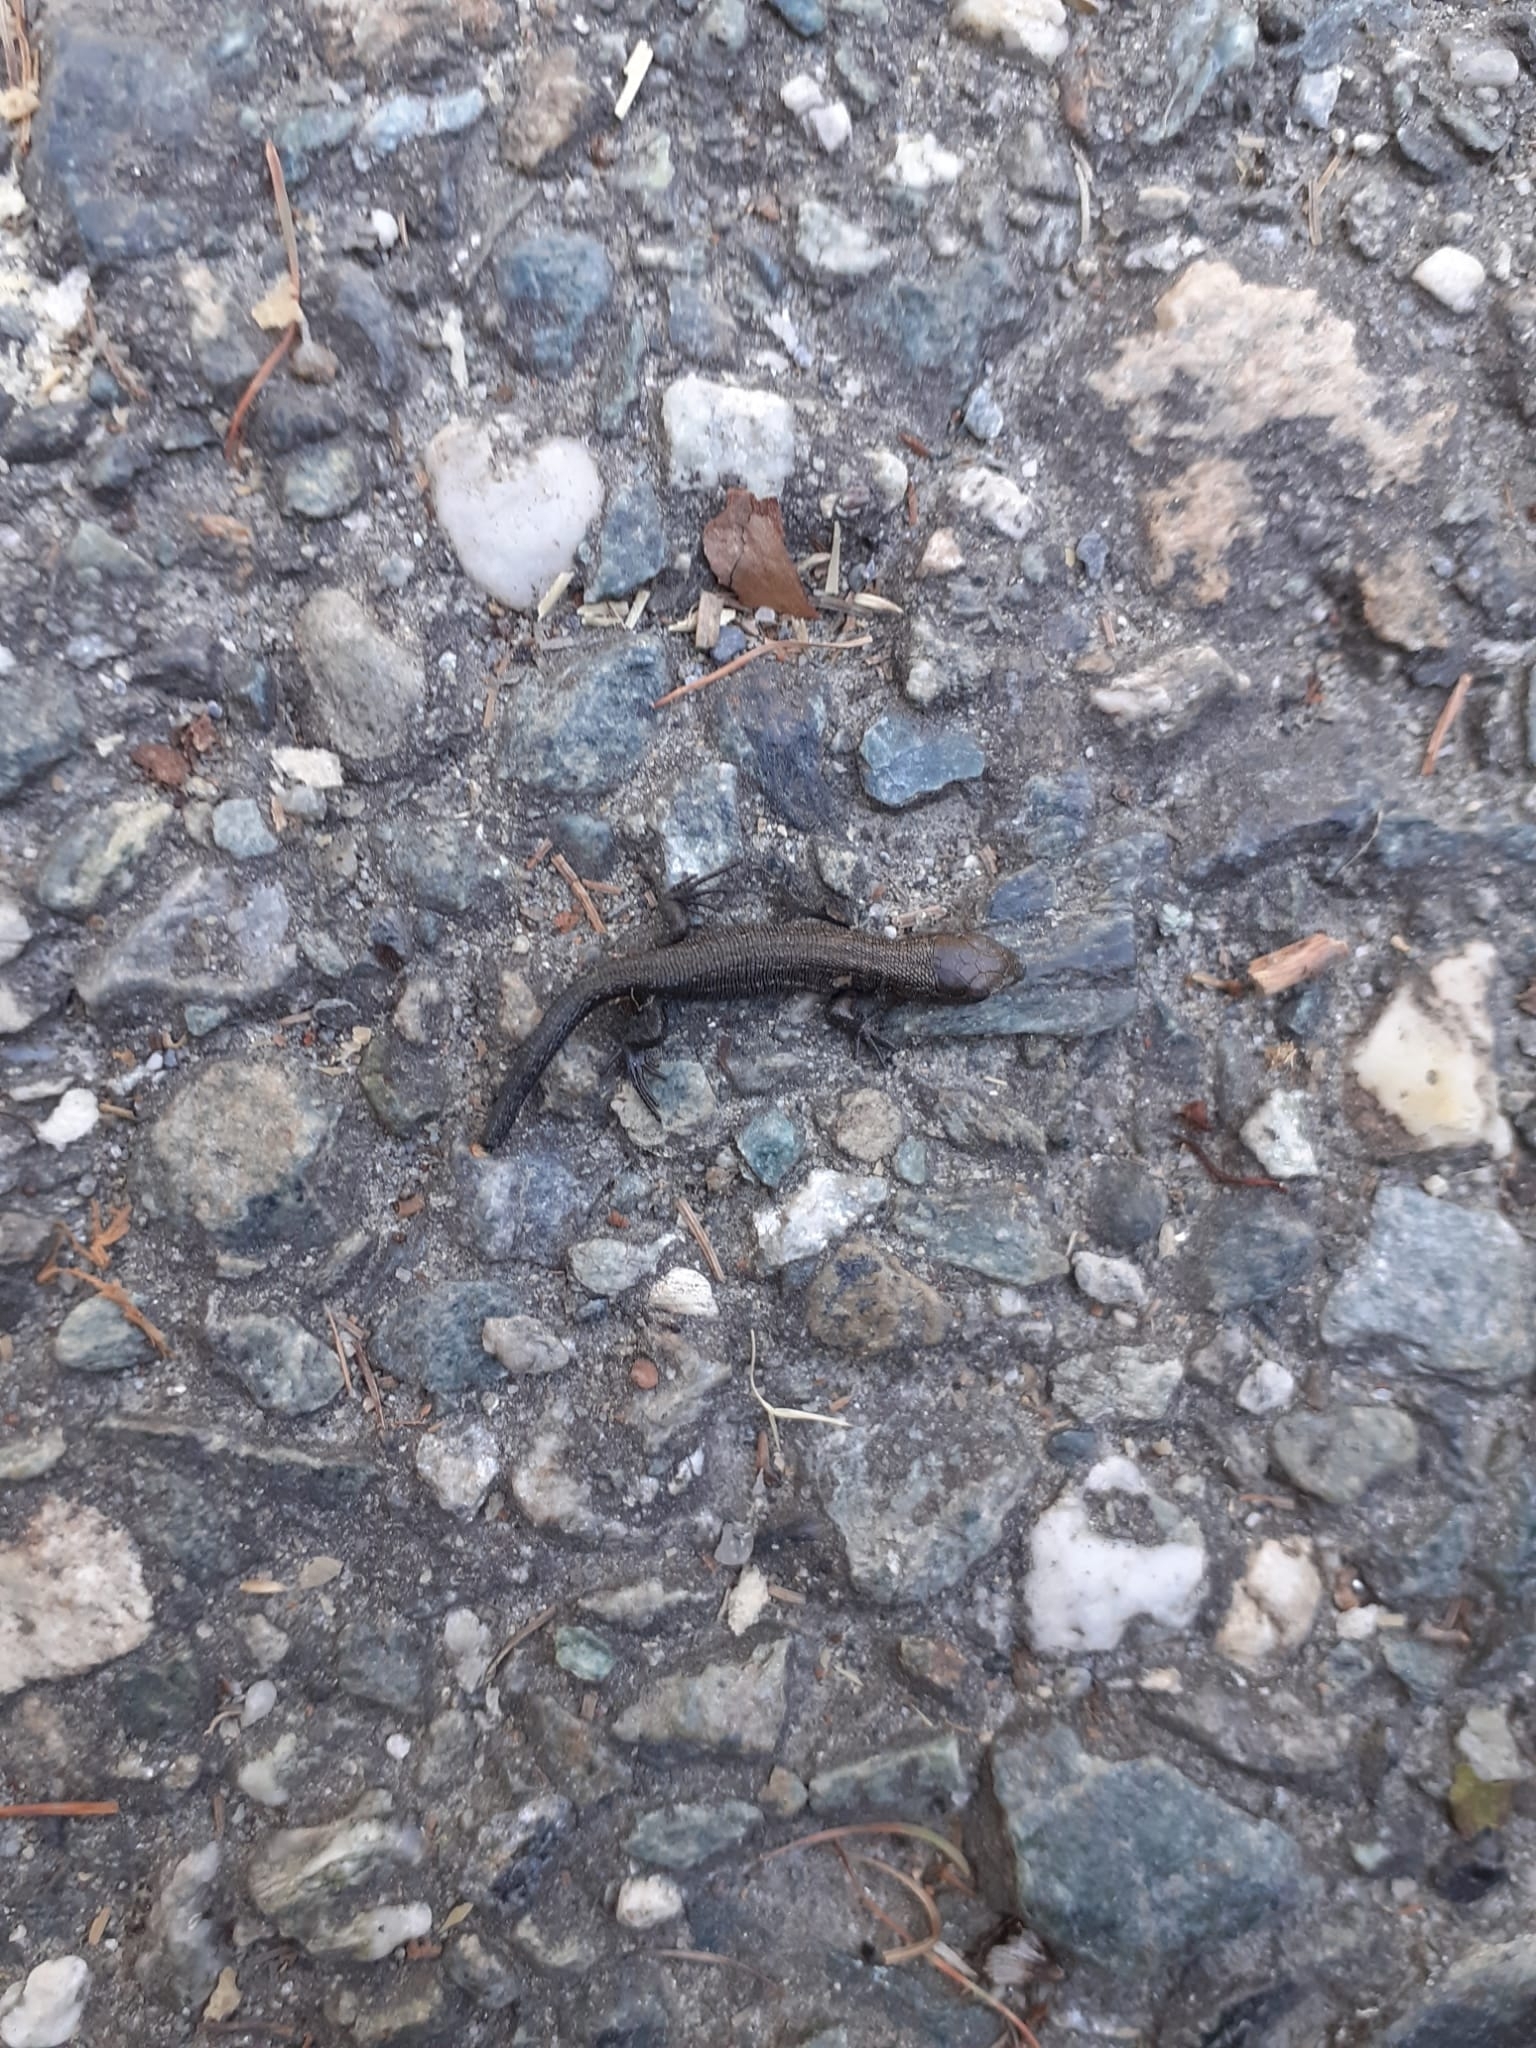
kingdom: Animalia
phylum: Chordata
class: Squamata
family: Lacertidae
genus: Zootoca
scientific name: Zootoca vivipara
